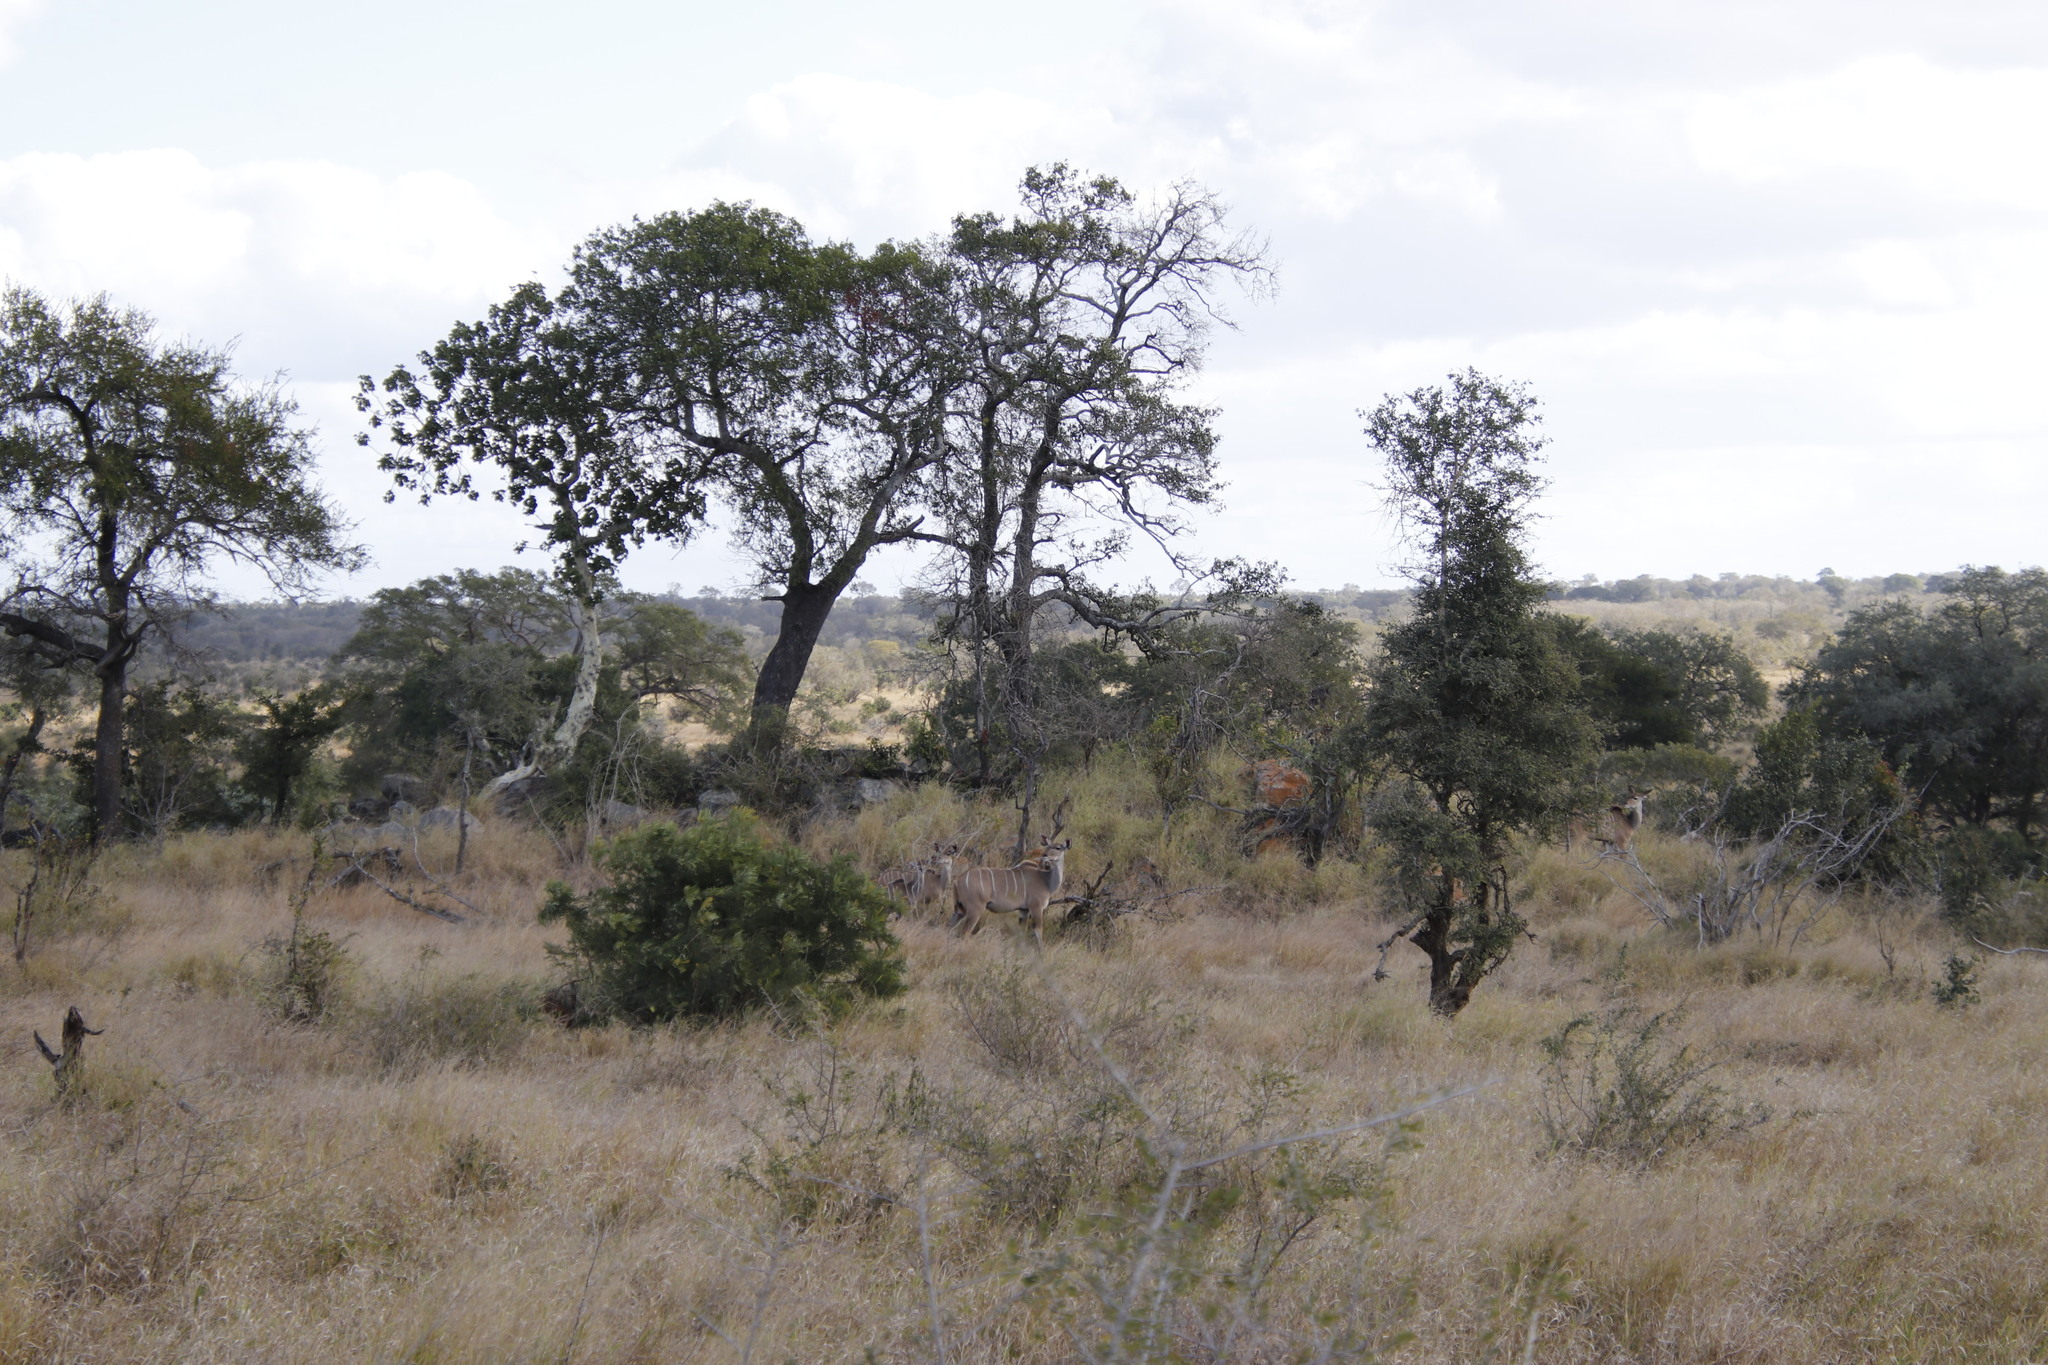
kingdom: Animalia
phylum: Chordata
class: Mammalia
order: Artiodactyla
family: Bovidae
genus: Tragelaphus
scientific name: Tragelaphus strepsiceros
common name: Greater kudu
